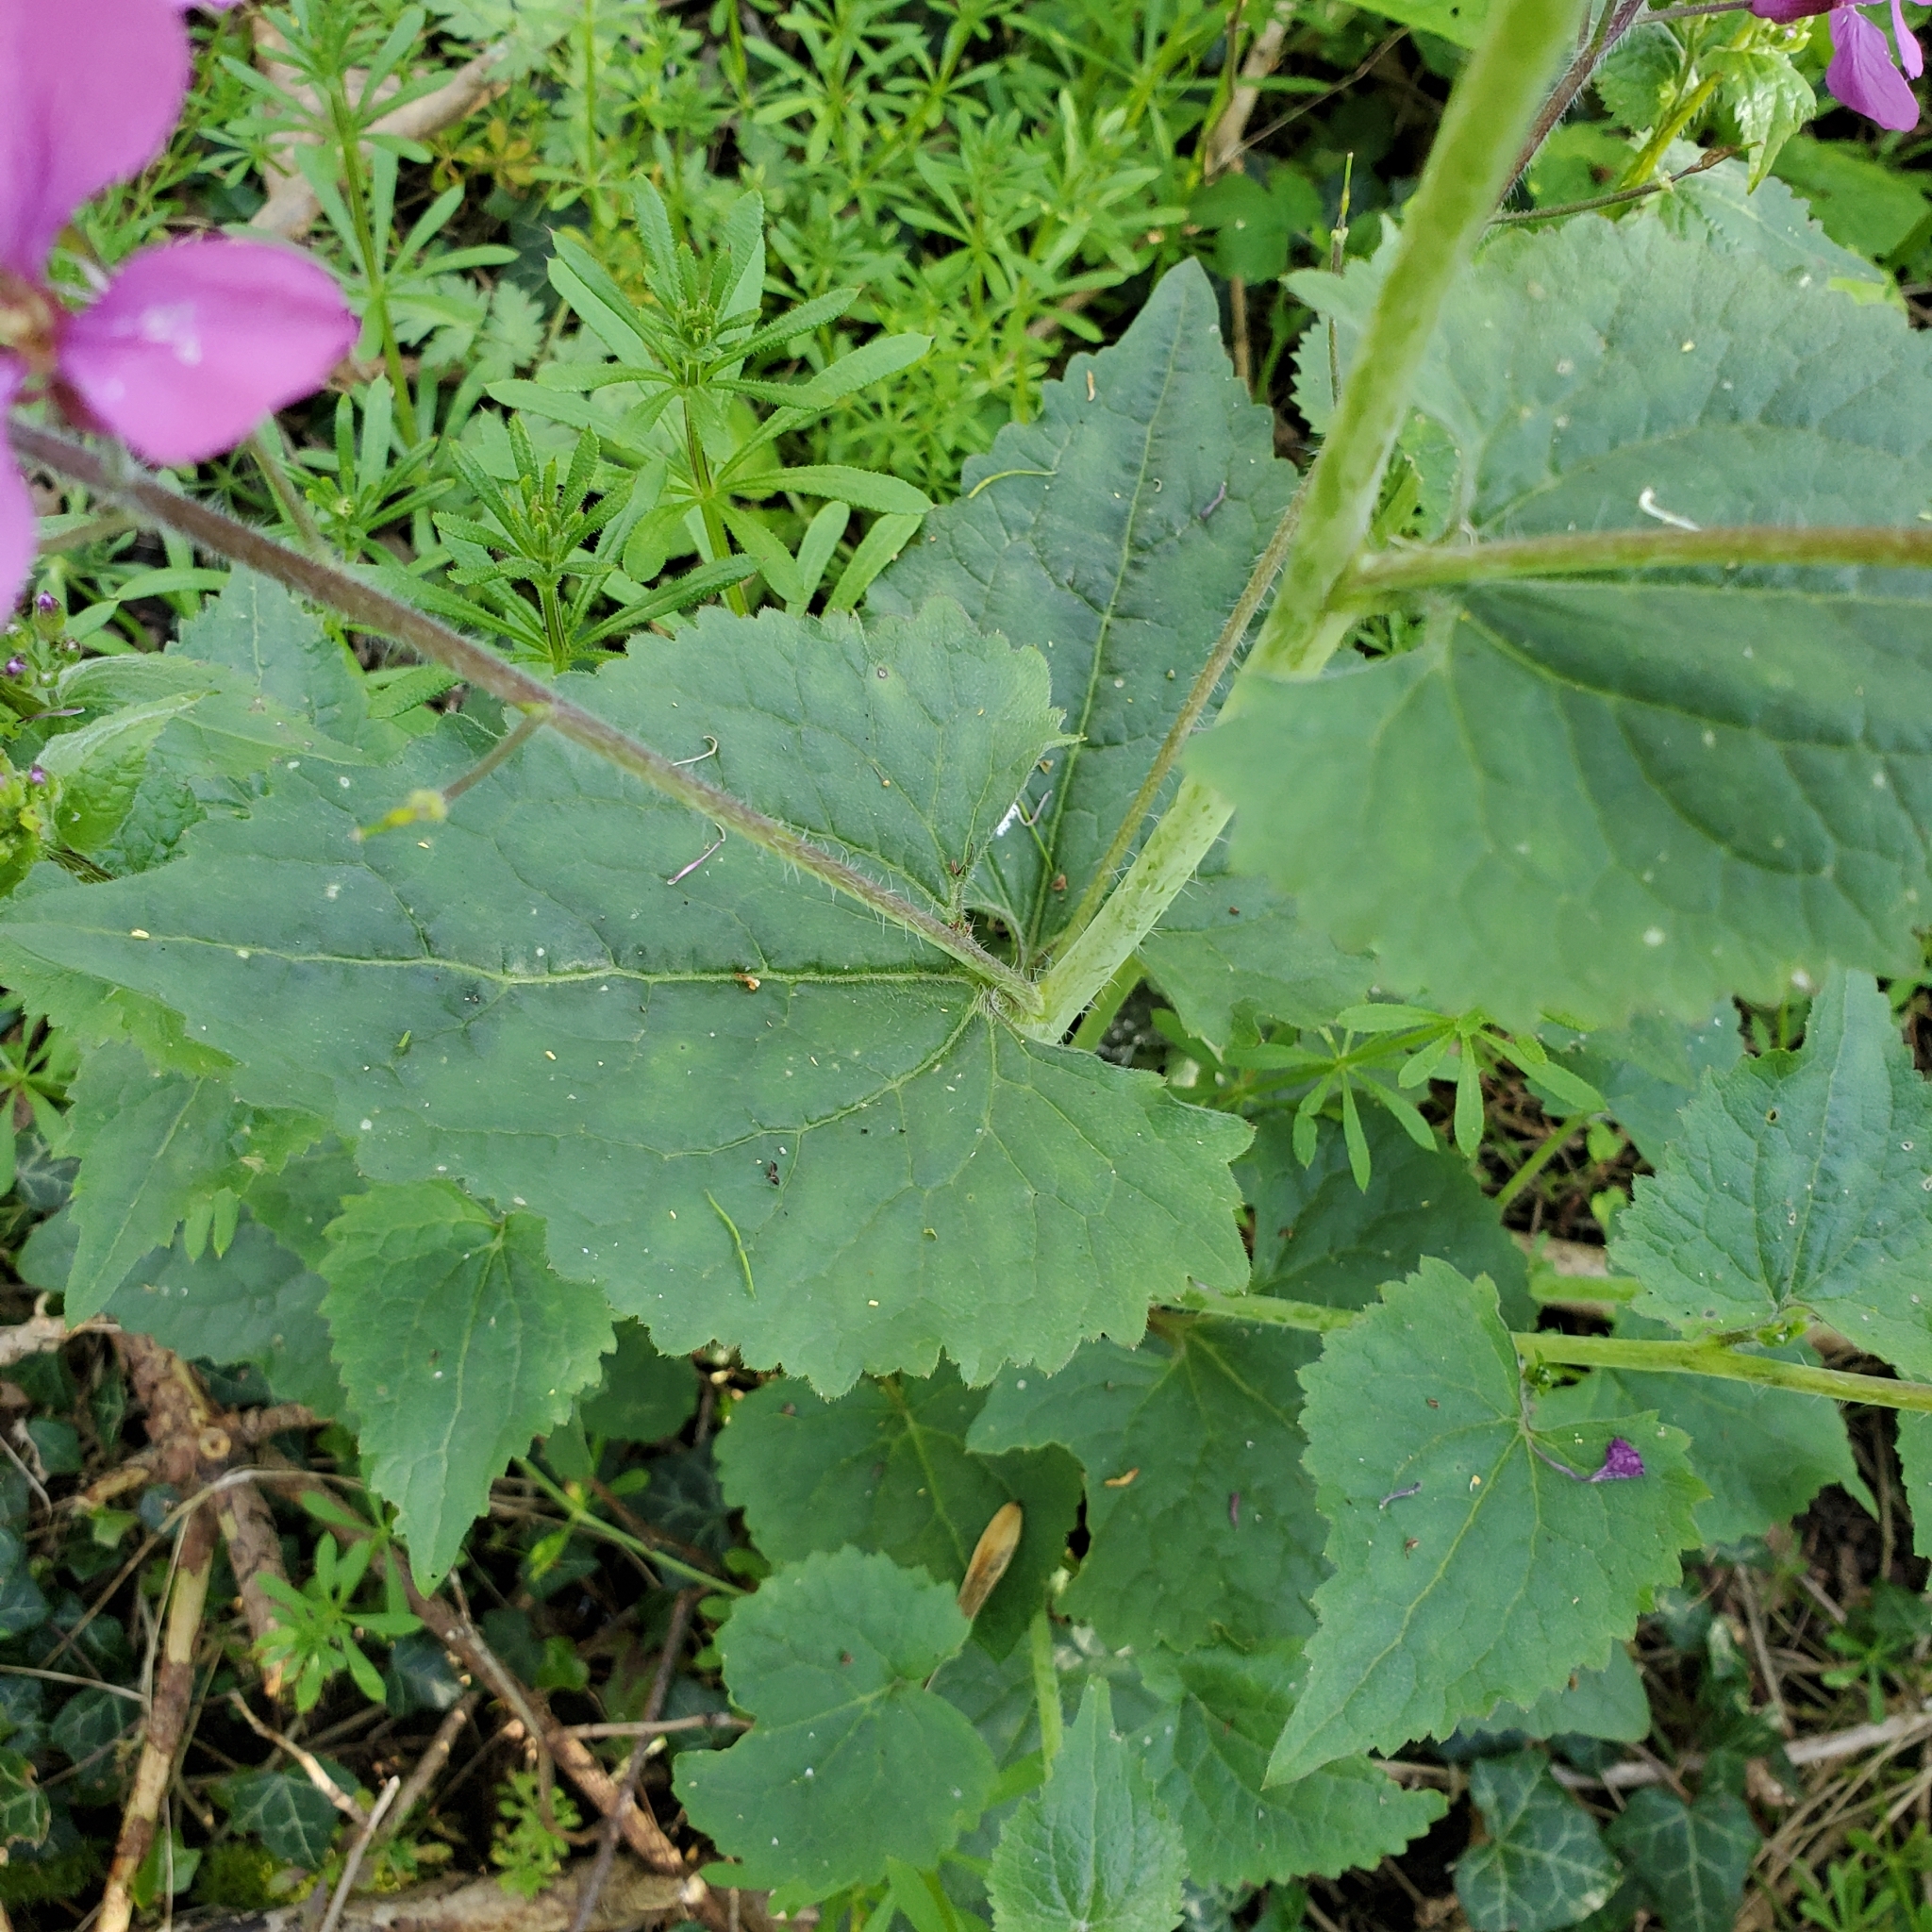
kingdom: Plantae
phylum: Tracheophyta
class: Magnoliopsida
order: Brassicales
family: Brassicaceae
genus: Lunaria
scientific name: Lunaria annua
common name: Honesty
